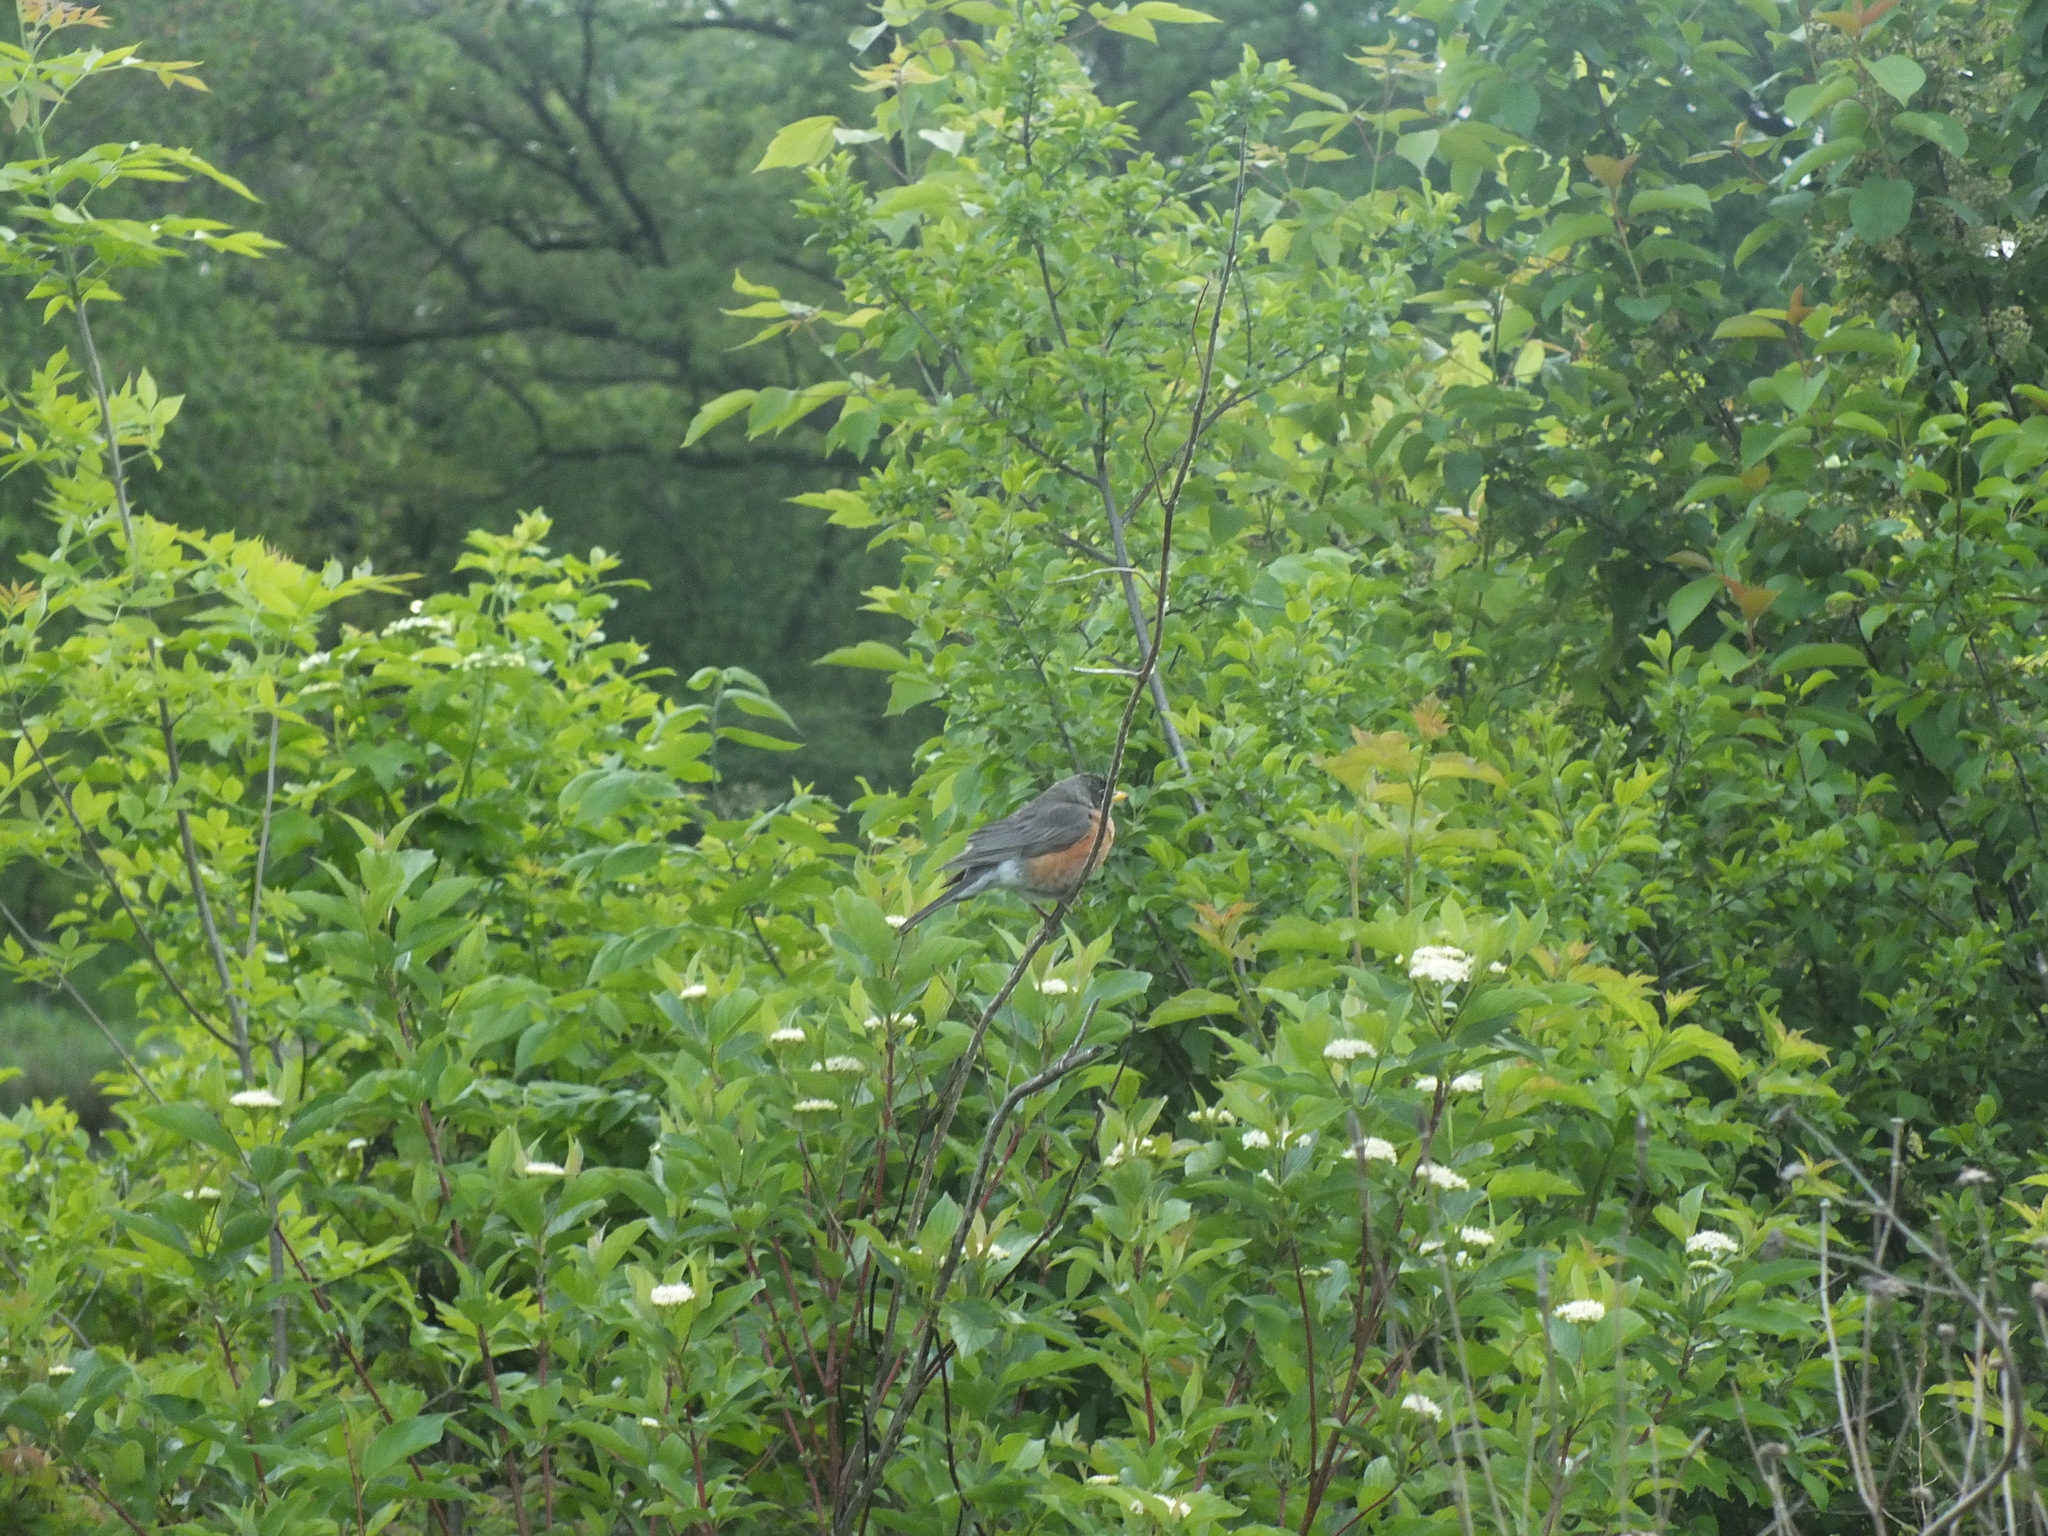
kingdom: Animalia
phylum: Chordata
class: Aves
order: Passeriformes
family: Turdidae
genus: Turdus
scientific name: Turdus migratorius
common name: American robin
